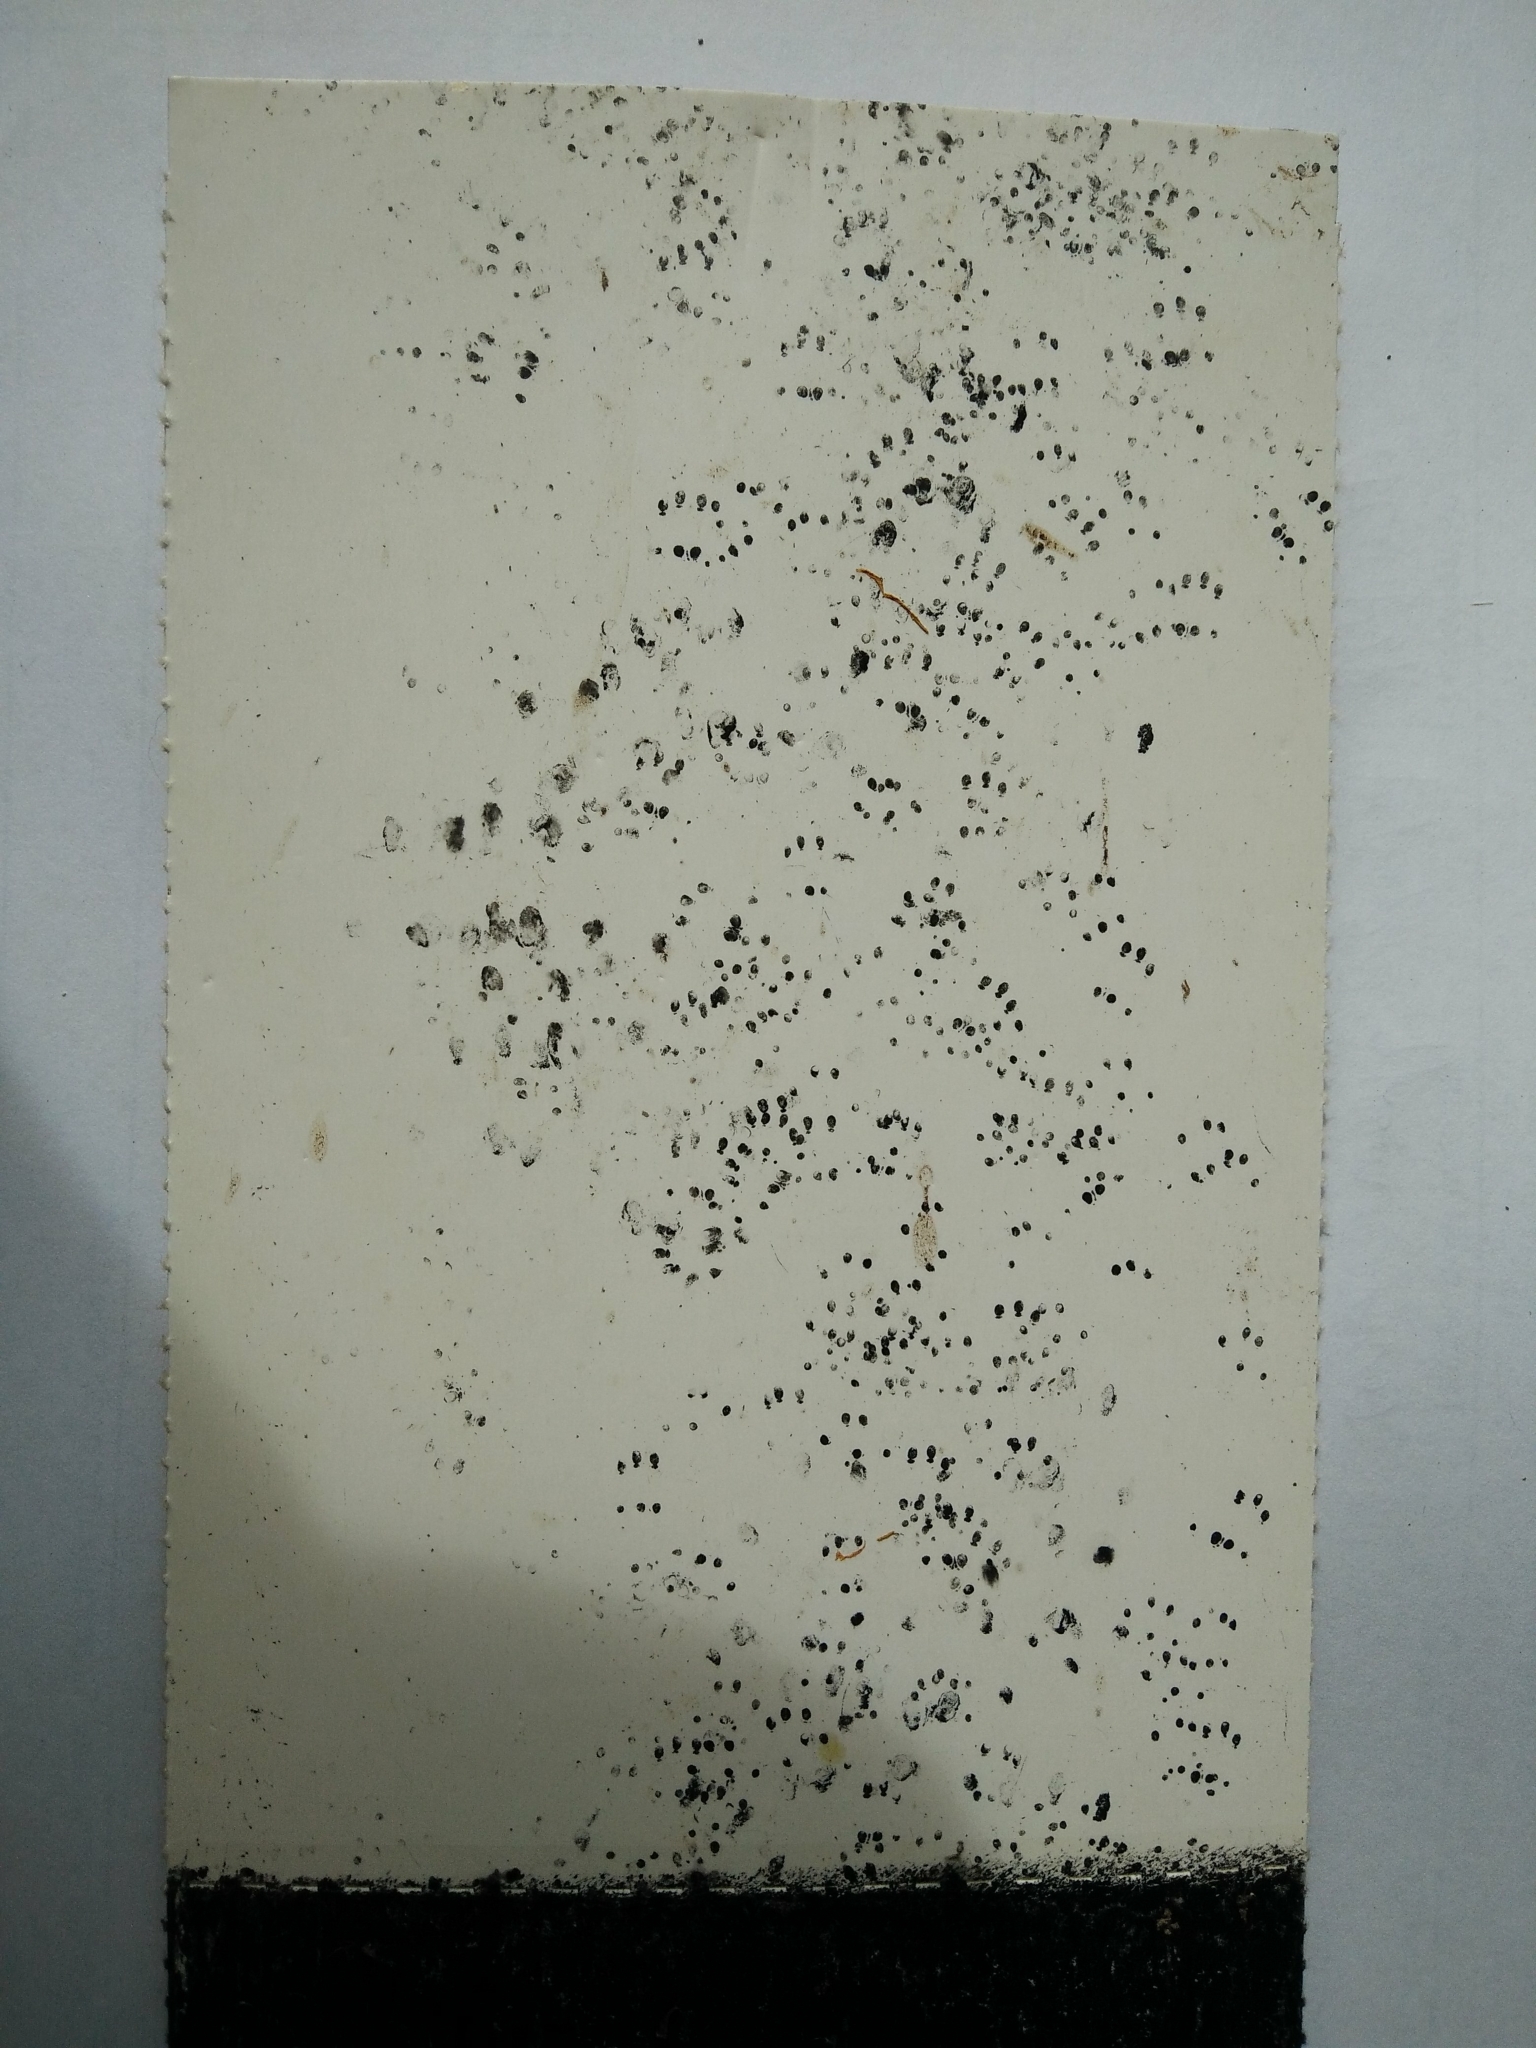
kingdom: Animalia
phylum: Chordata
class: Mammalia
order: Rodentia
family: Muridae
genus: Mus
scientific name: Mus musculus
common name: House mouse
